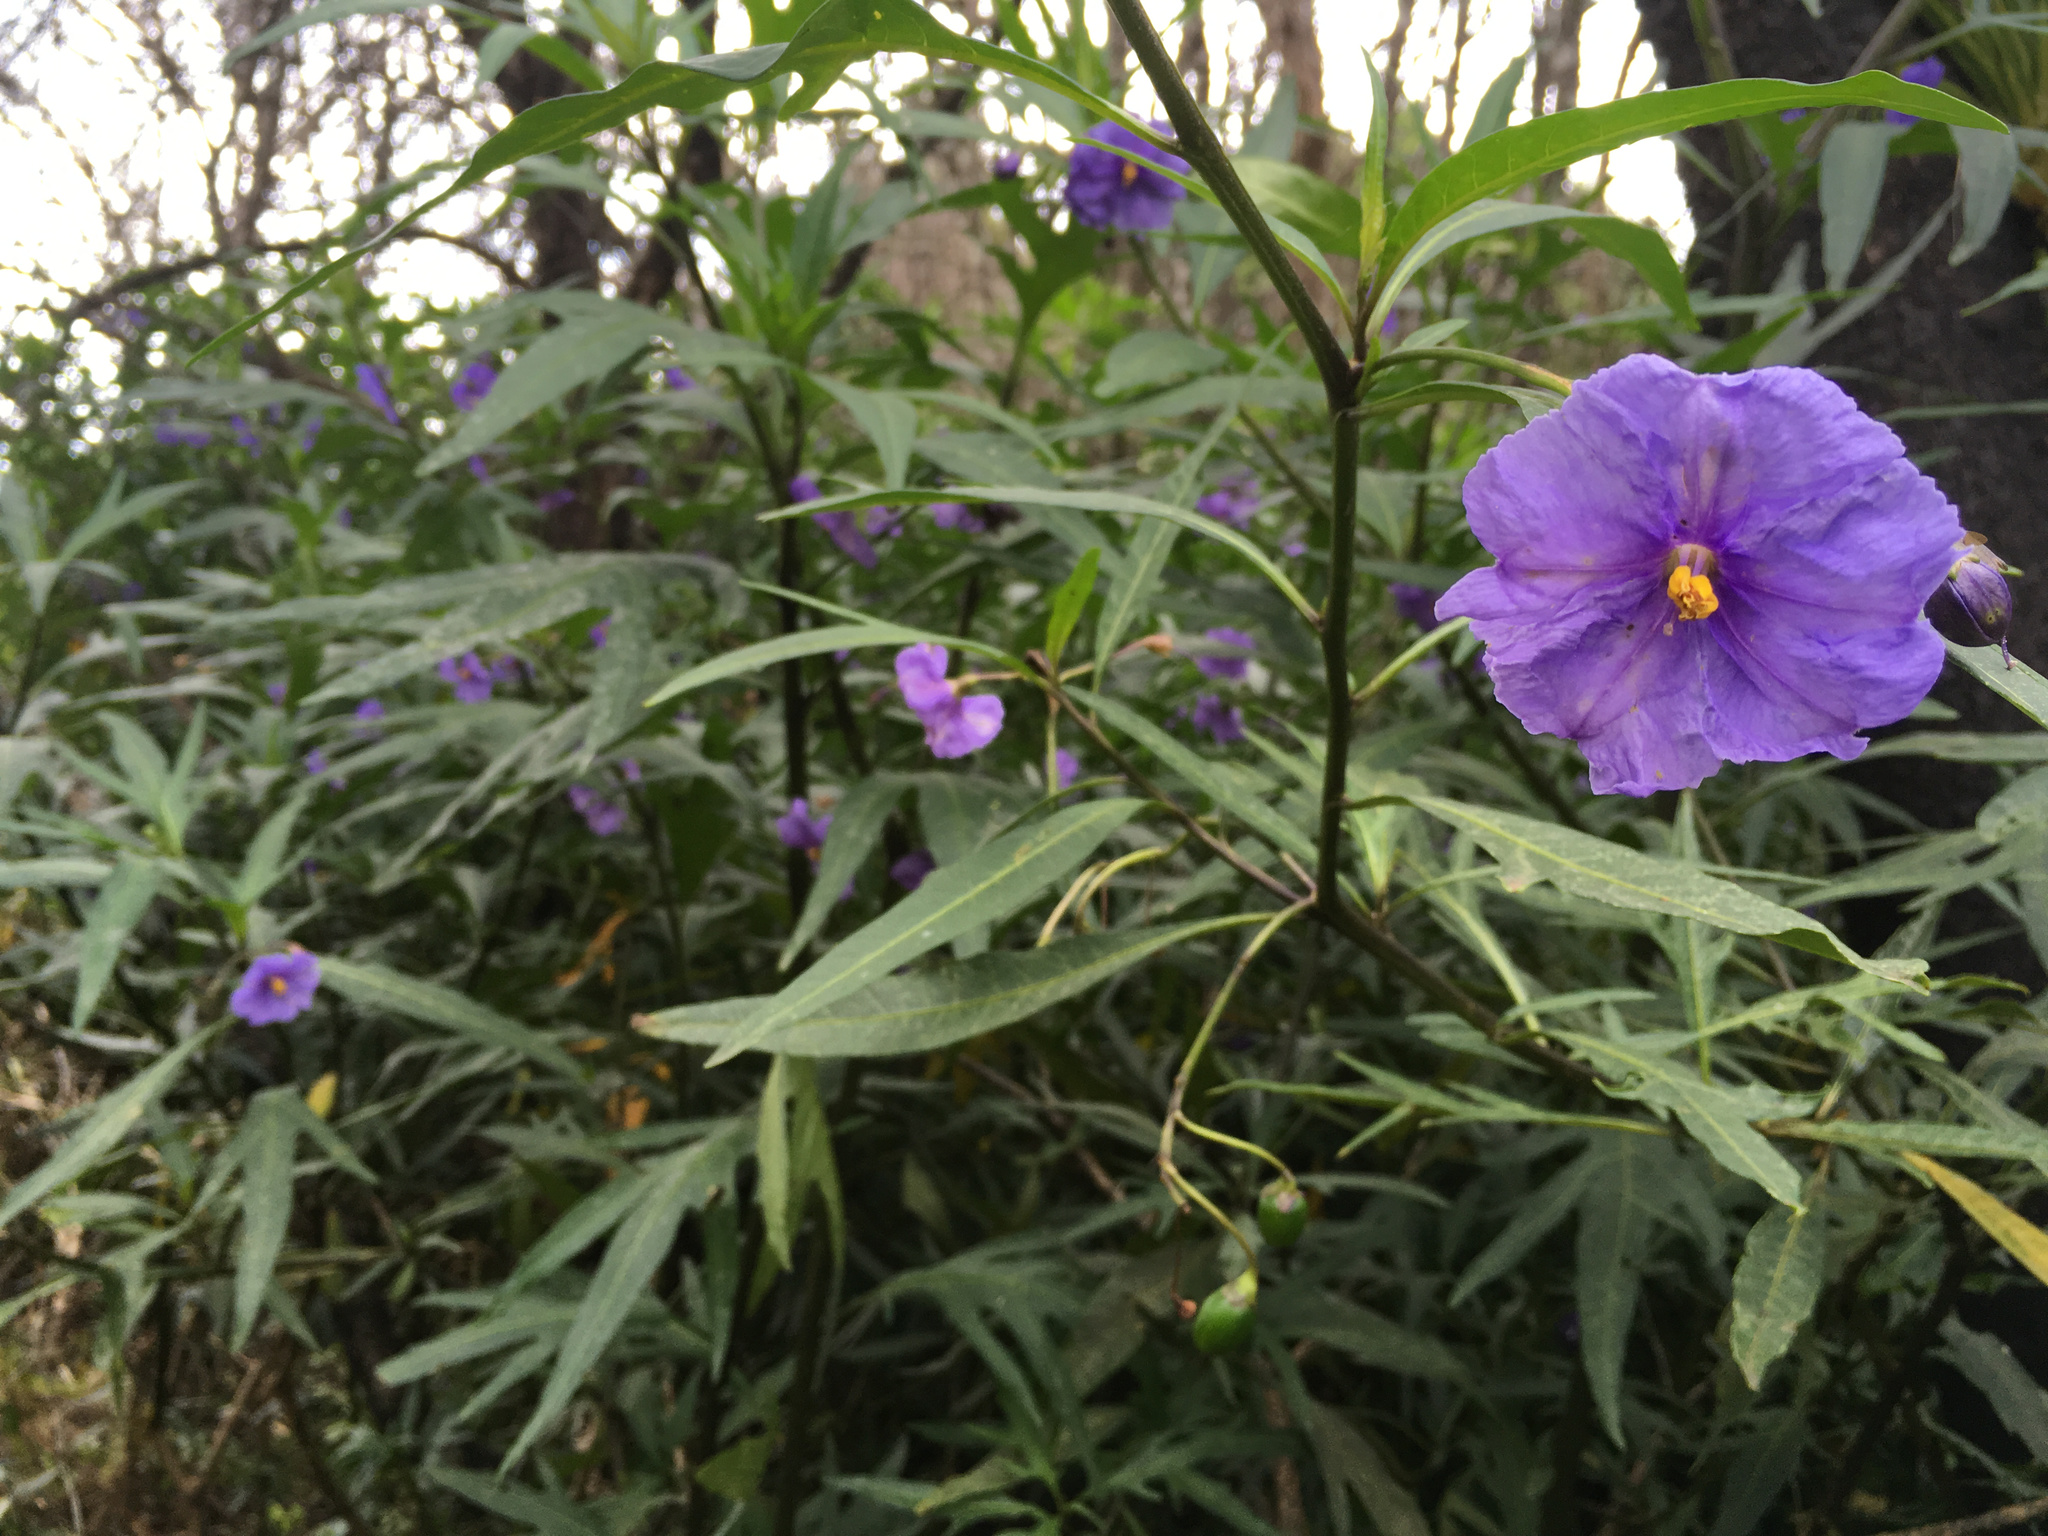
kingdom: Plantae
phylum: Tracheophyta
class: Magnoliopsida
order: Solanales
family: Solanaceae
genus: Solanum
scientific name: Solanum laciniatum
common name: Kangaroo-apple
